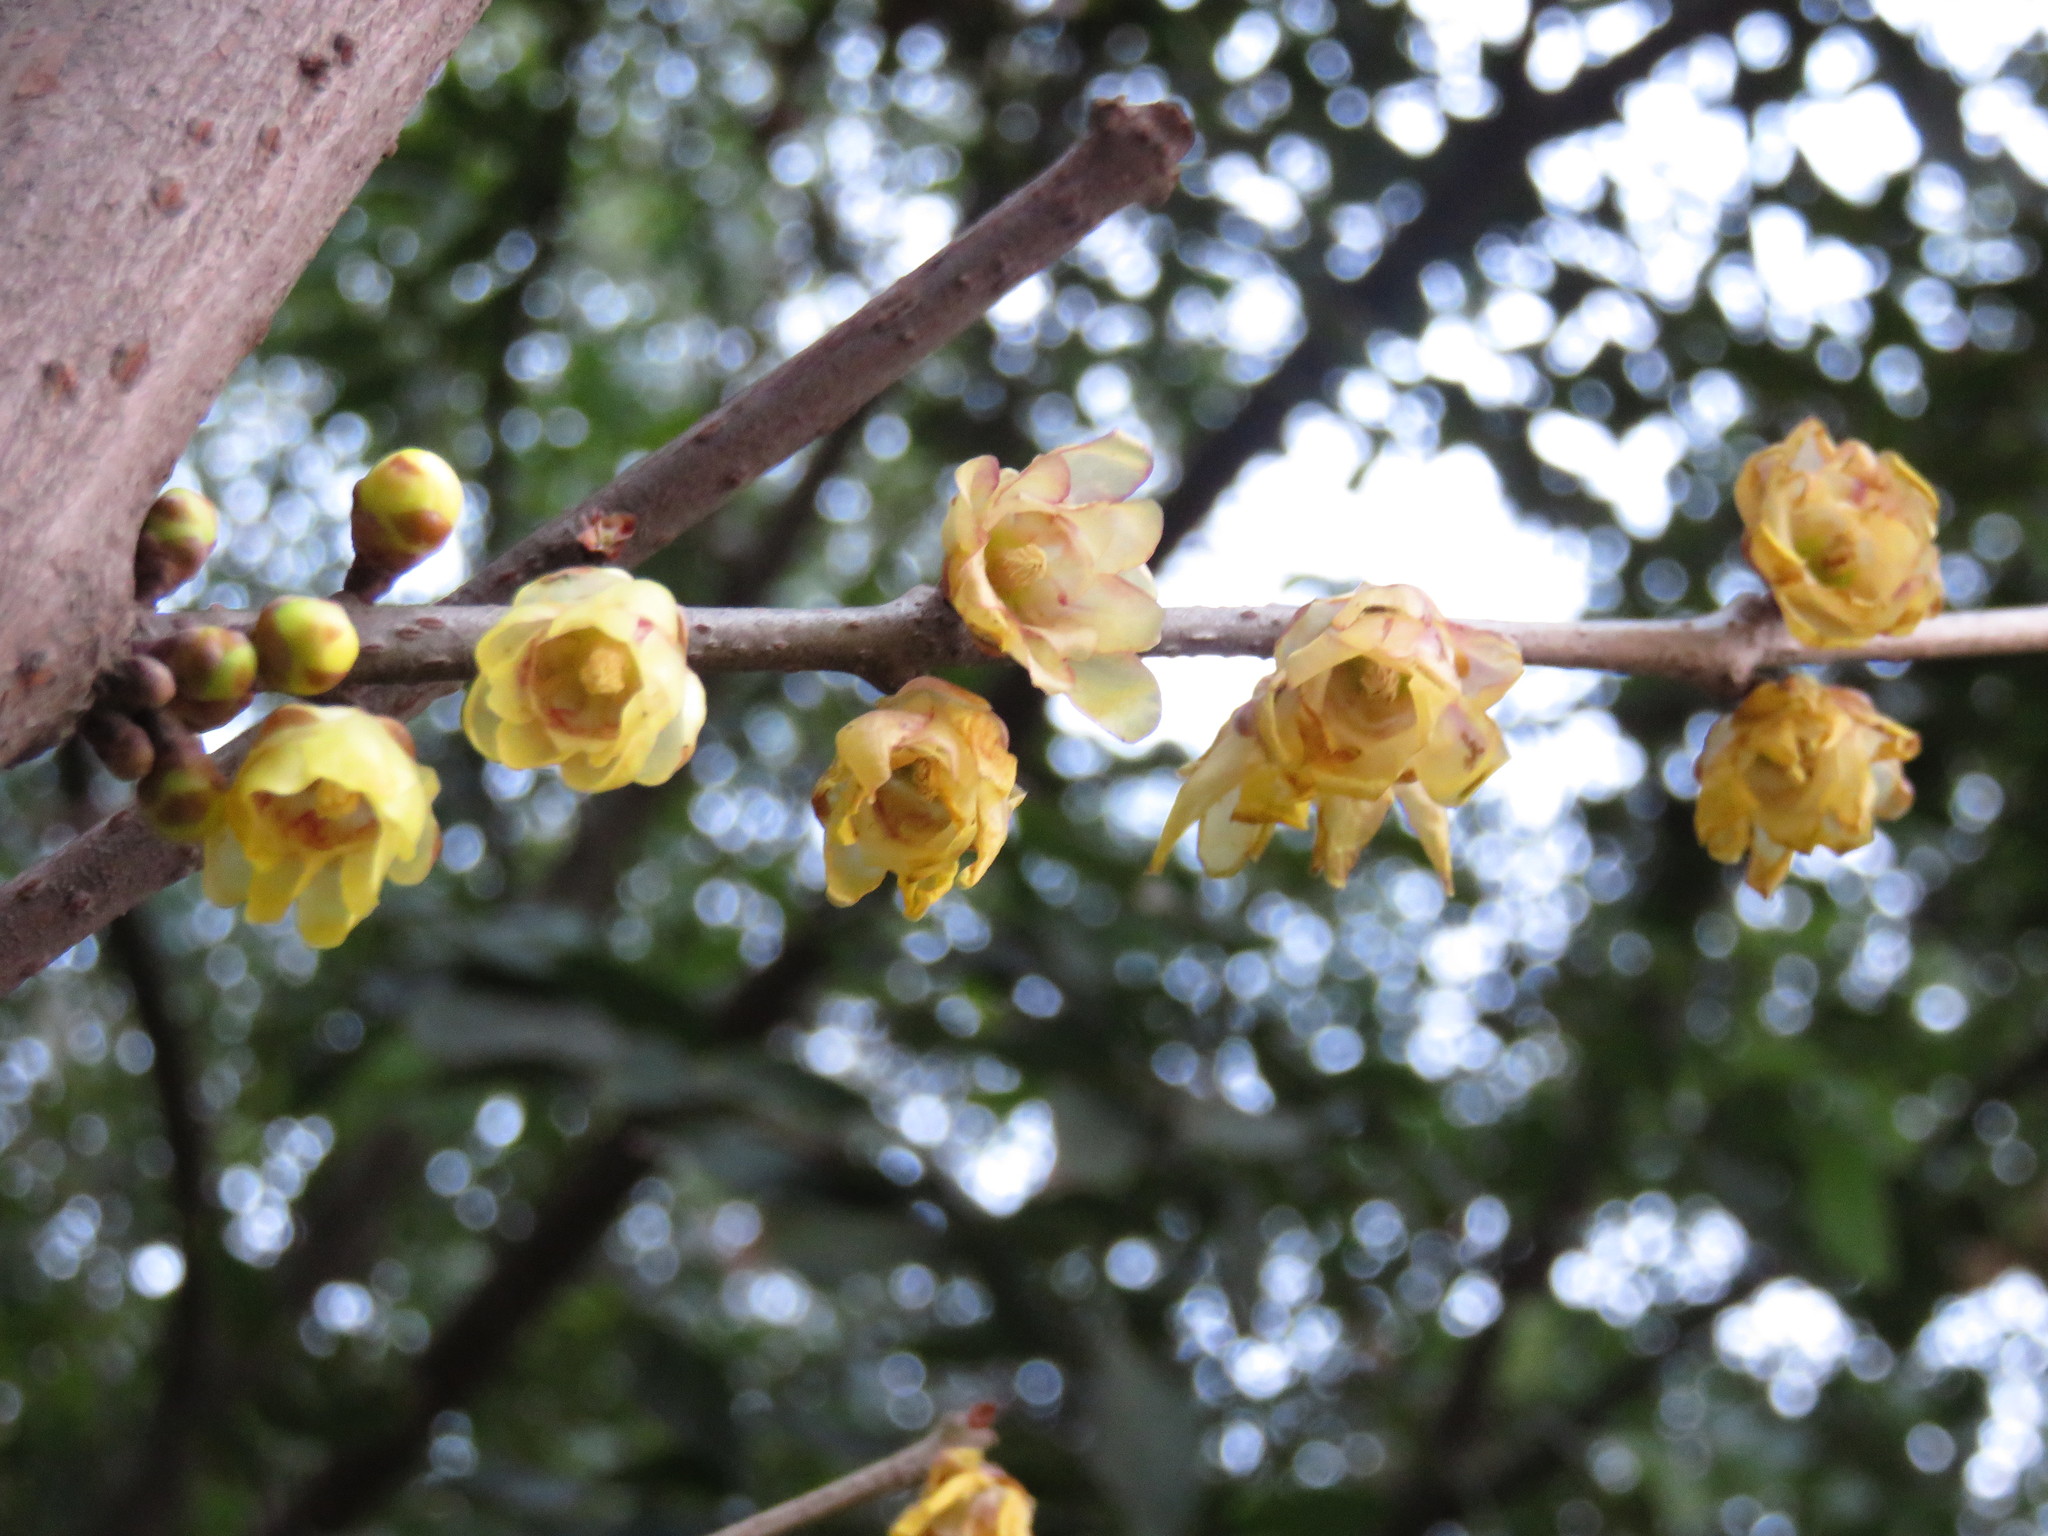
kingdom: Plantae
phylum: Tracheophyta
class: Magnoliopsida
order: Laurales
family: Calycanthaceae
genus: Chimonanthus
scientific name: Chimonanthus praecox
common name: Wintersweet
